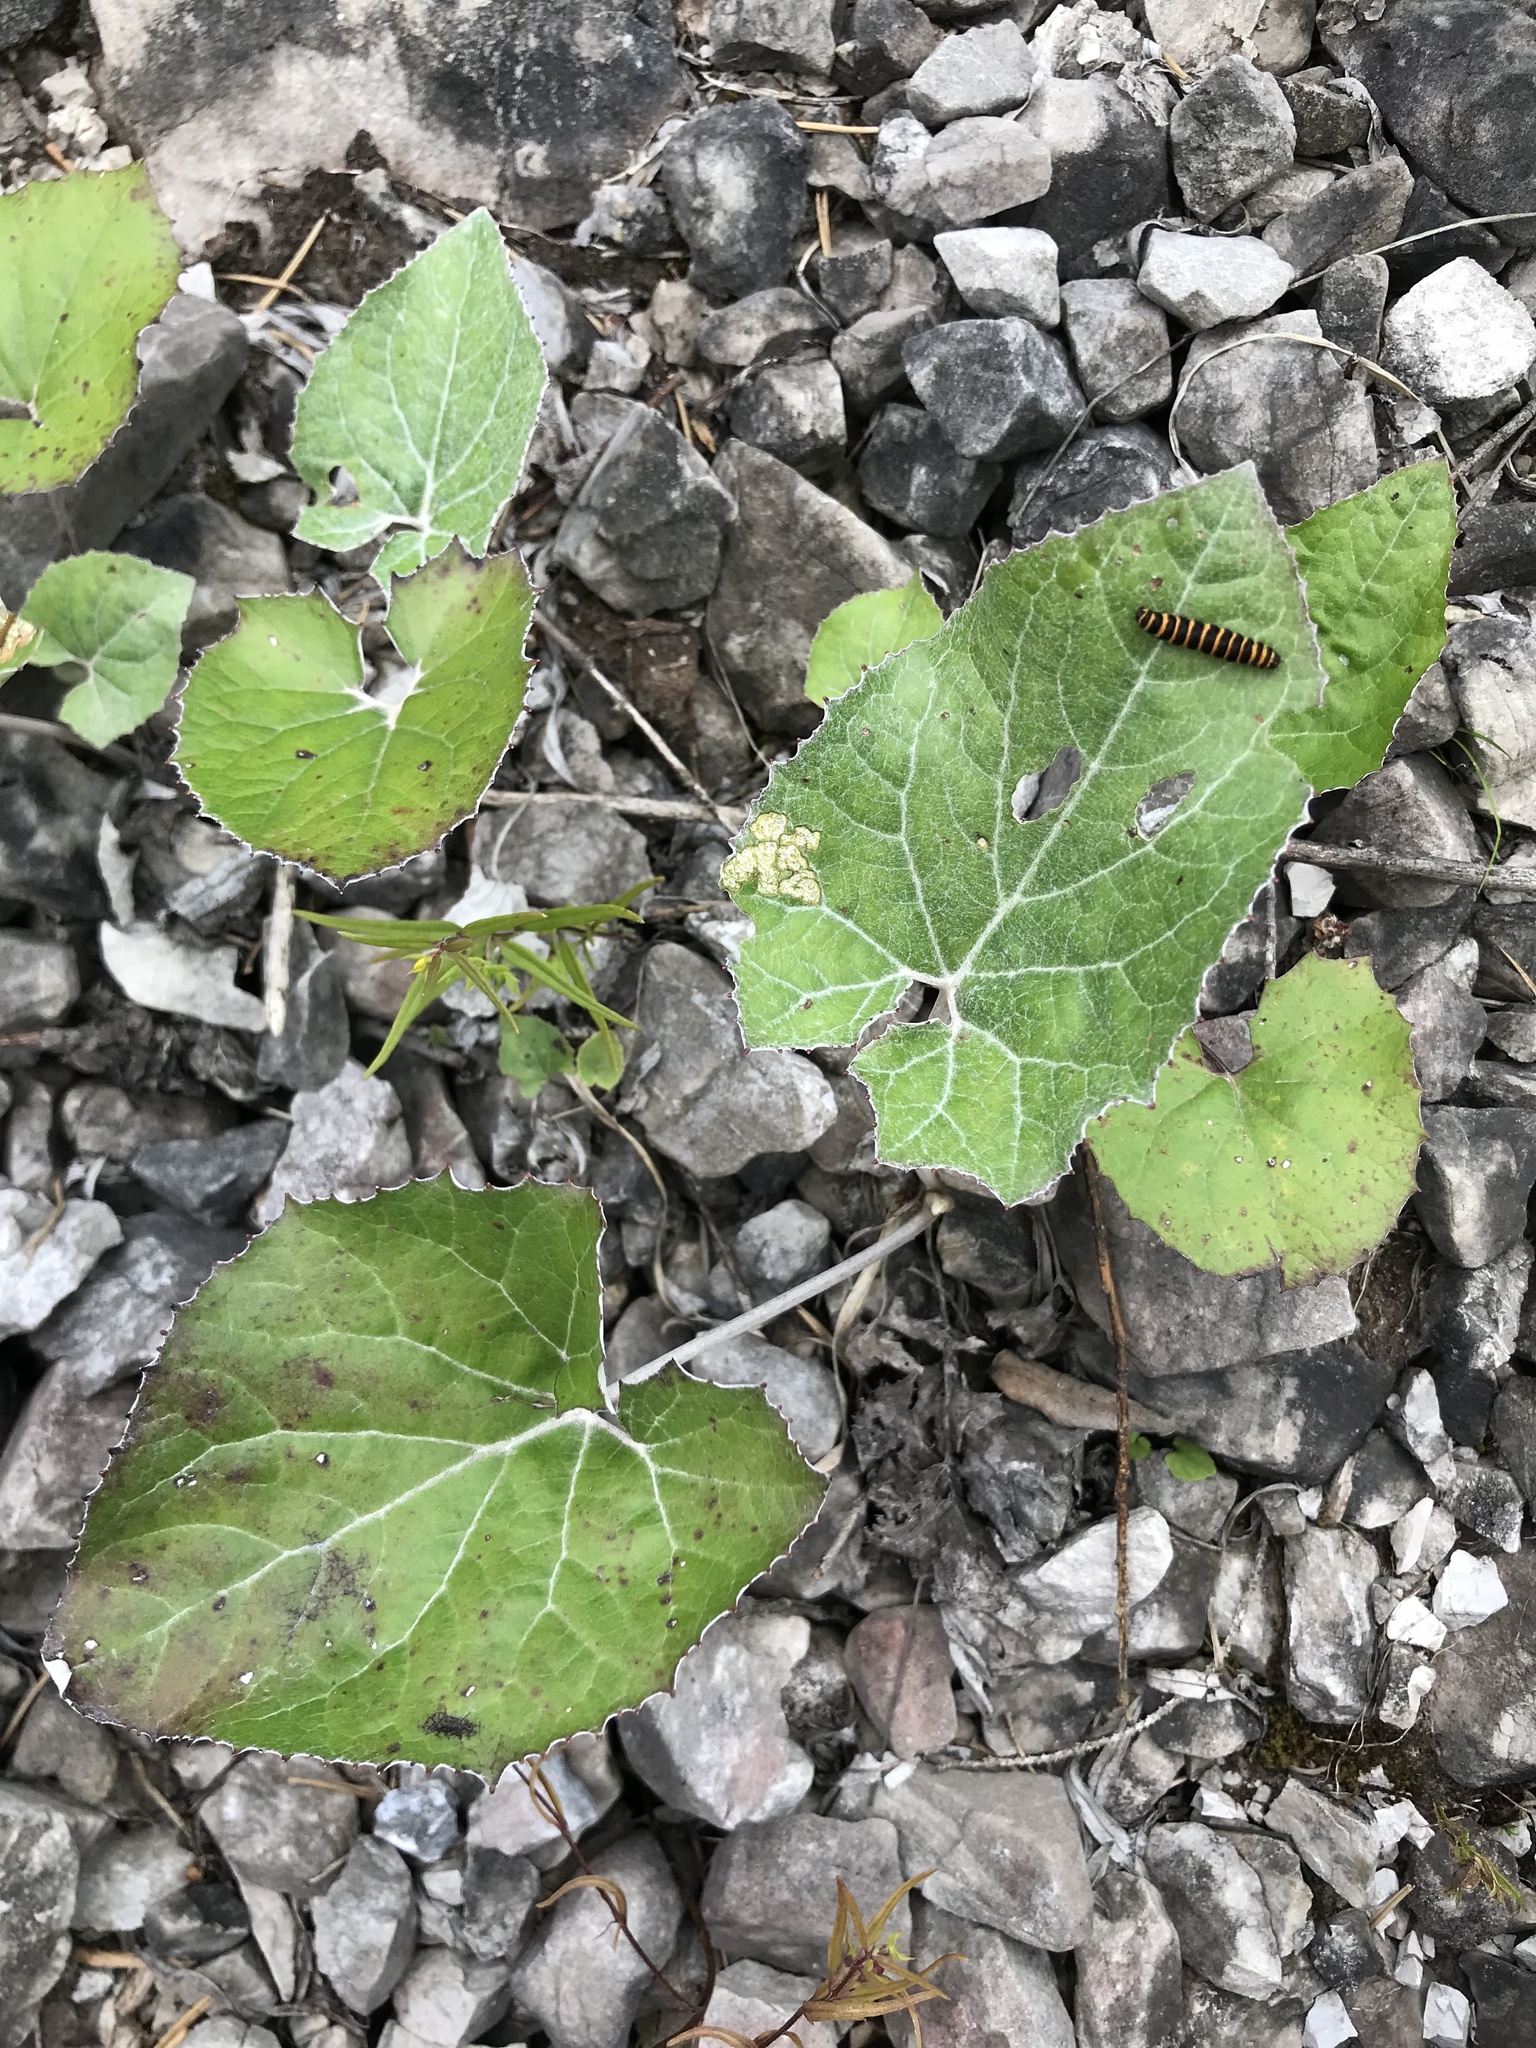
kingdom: Plantae
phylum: Tracheophyta
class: Magnoliopsida
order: Asterales
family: Asteraceae
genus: Petasites
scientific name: Petasites paradoxus
